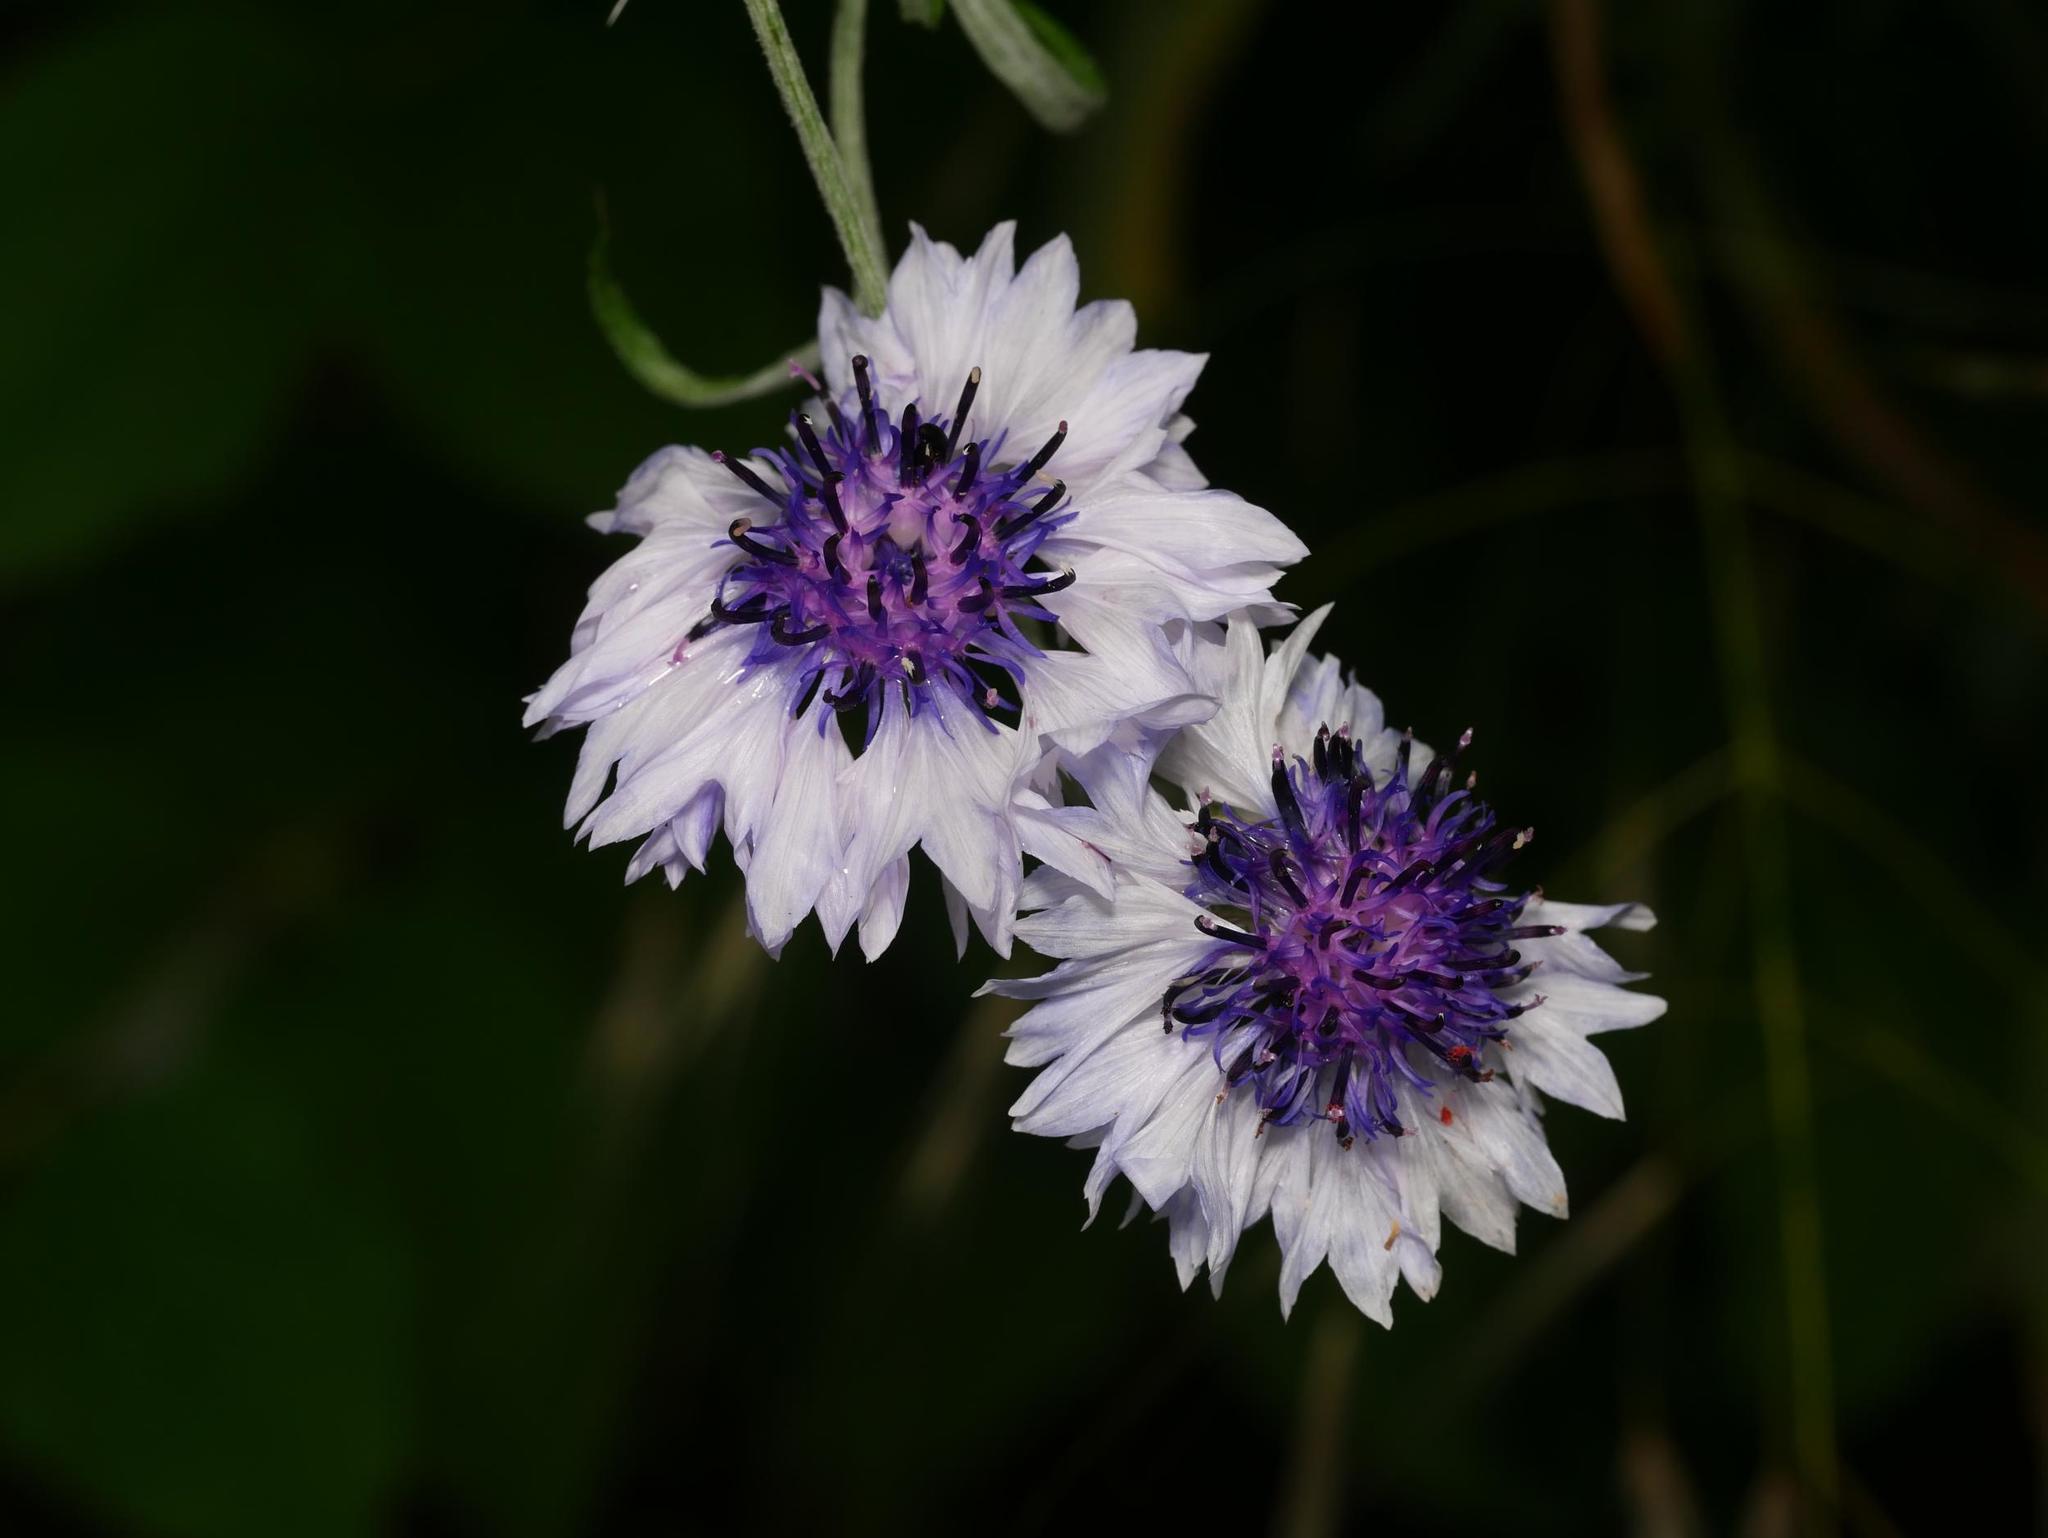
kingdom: Plantae
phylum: Tracheophyta
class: Magnoliopsida
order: Asterales
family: Asteraceae
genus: Centaurea
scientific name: Centaurea cyanus
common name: Cornflower
